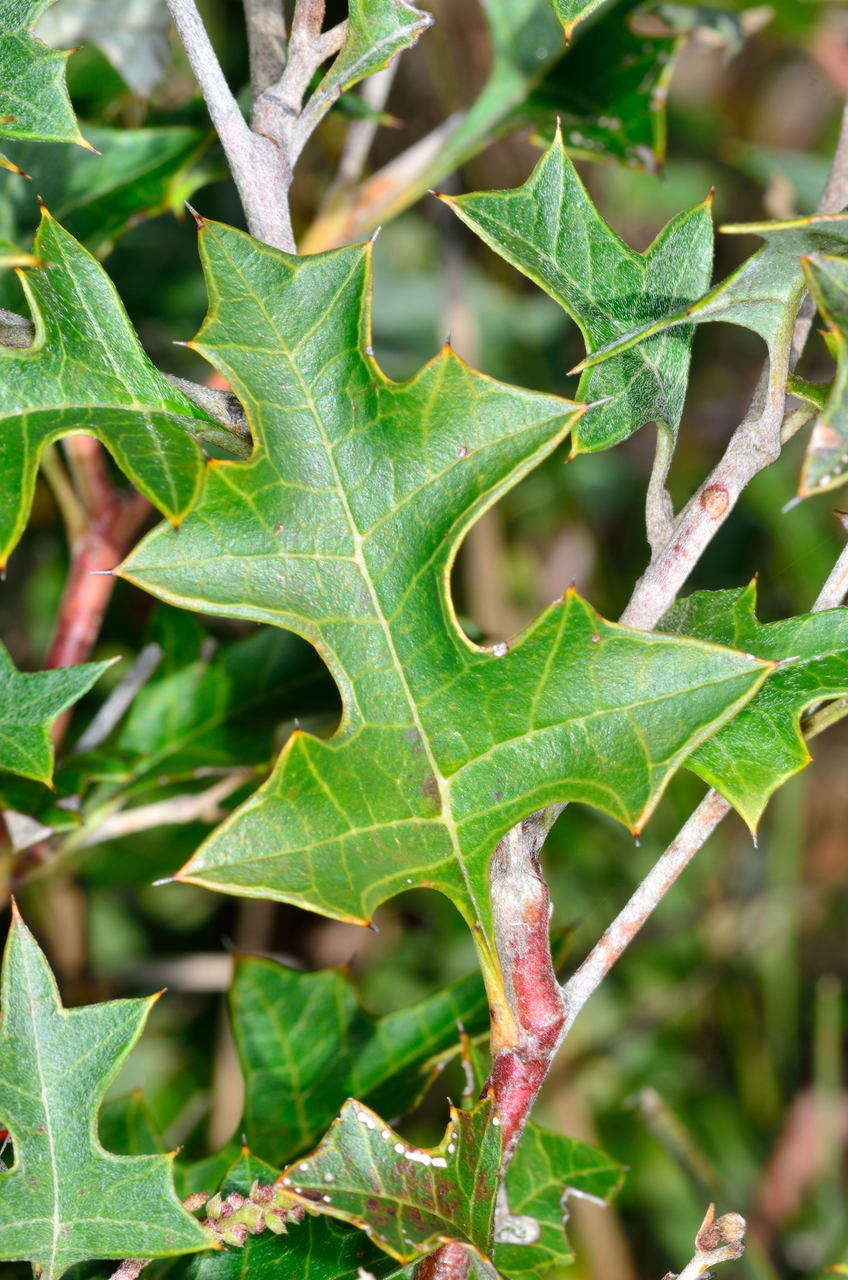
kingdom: Plantae
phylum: Tracheophyta
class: Magnoliopsida
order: Proteales
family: Proteaceae
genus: Grevillea
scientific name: Grevillea steiglitziana
